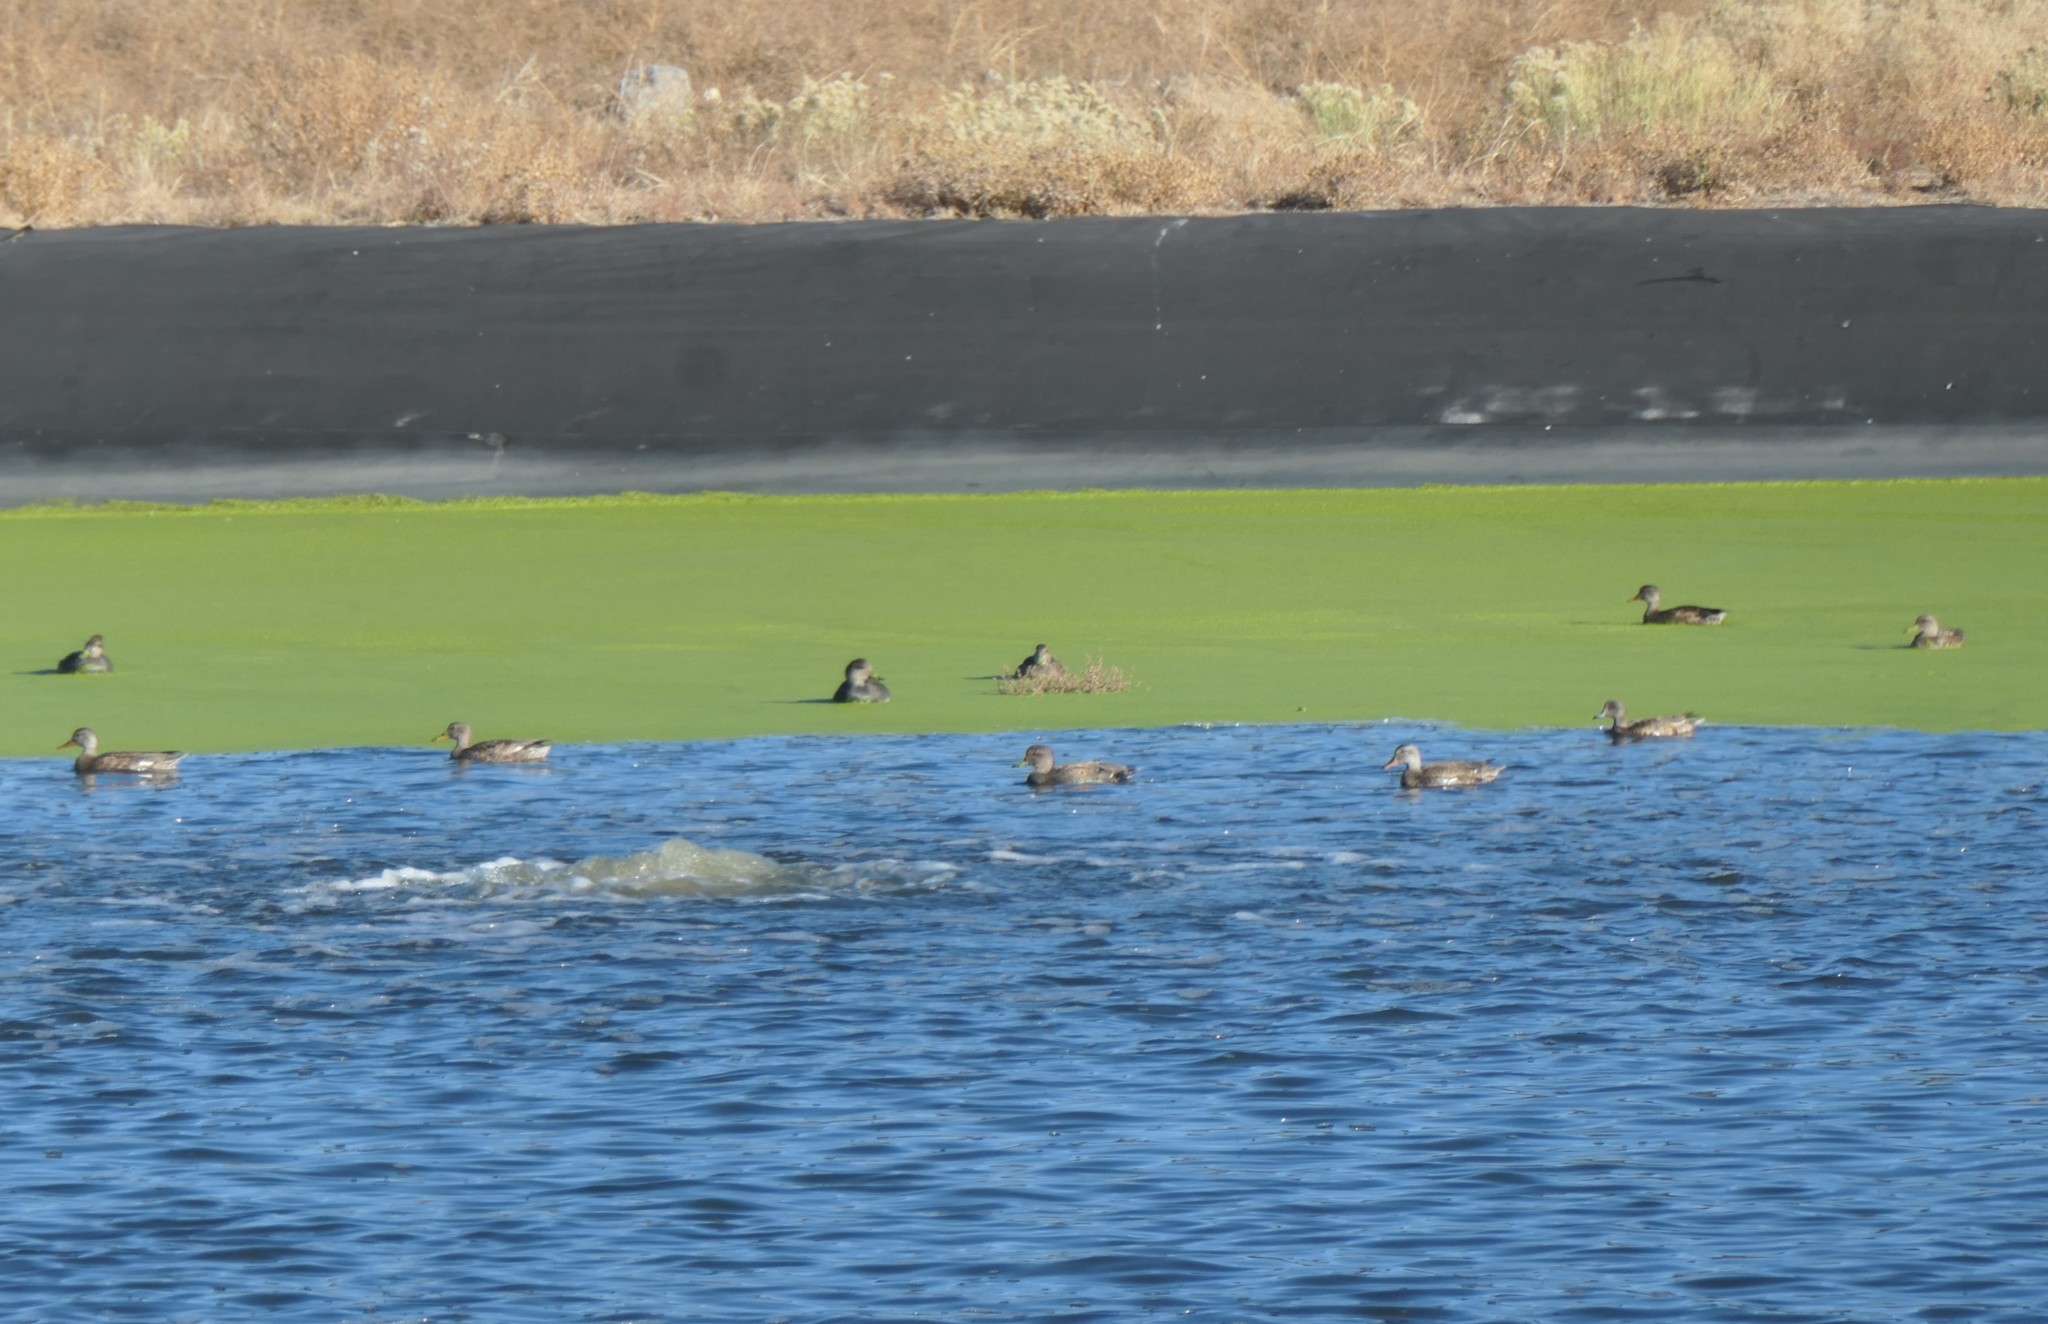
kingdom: Animalia
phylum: Chordata
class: Aves
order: Anseriformes
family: Anatidae
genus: Mareca
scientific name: Mareca strepera
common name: Gadwall
